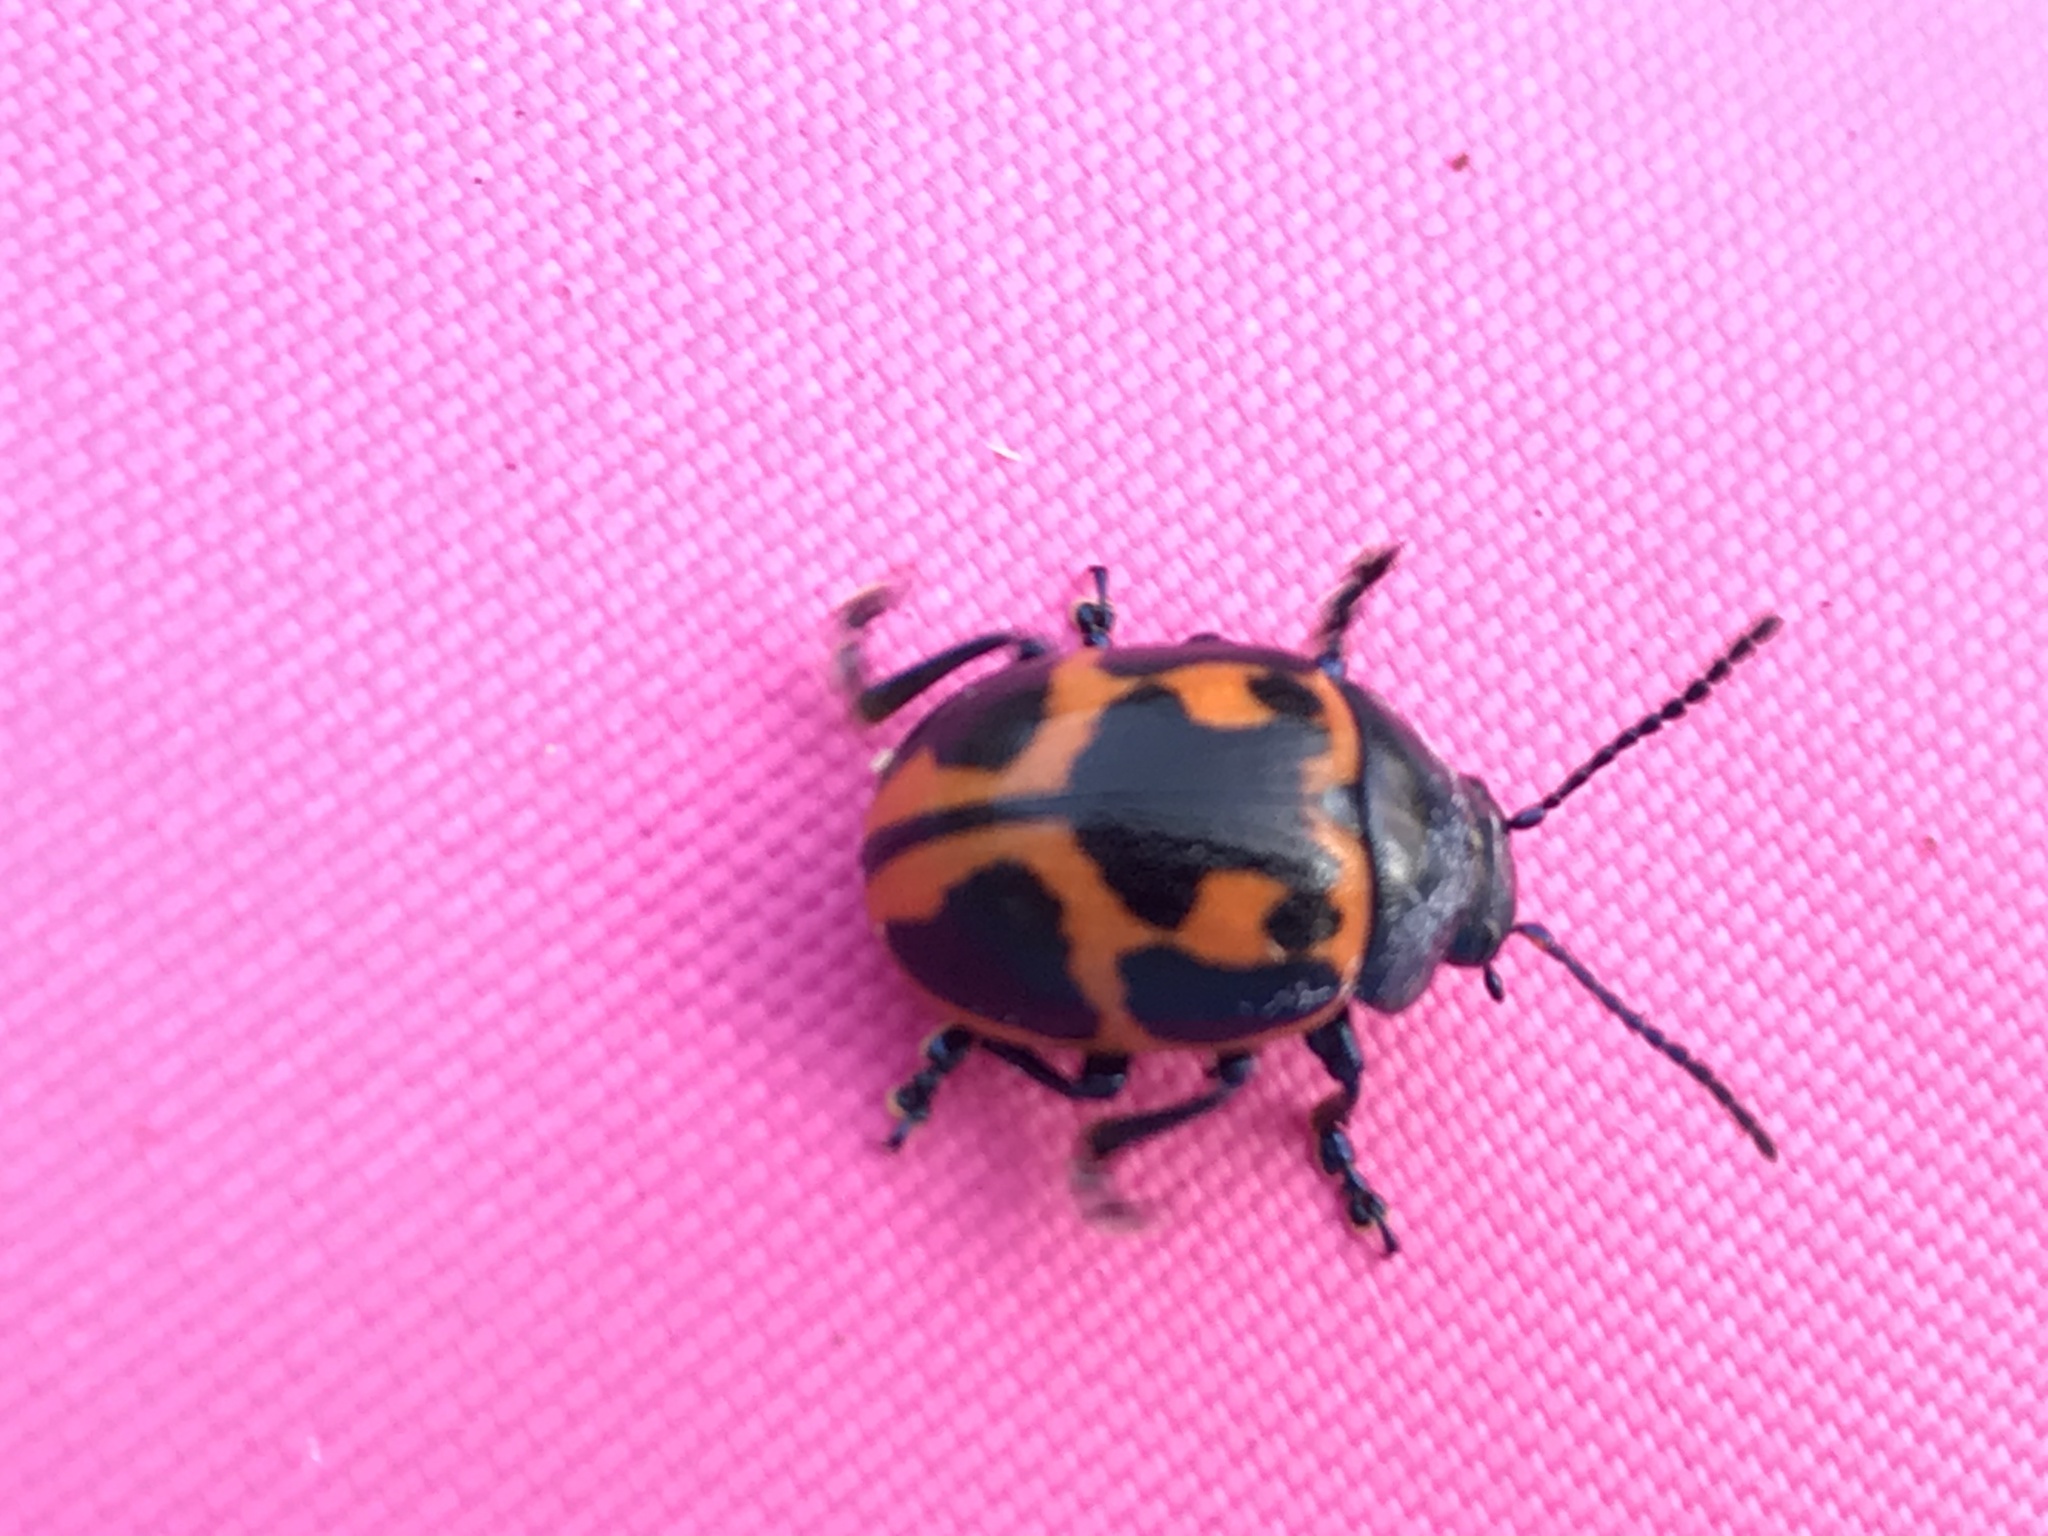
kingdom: Animalia
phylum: Arthropoda
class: Insecta
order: Coleoptera
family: Chrysomelidae
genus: Labidomera
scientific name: Labidomera clivicollis
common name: Swamp milkweed leaf beetle
